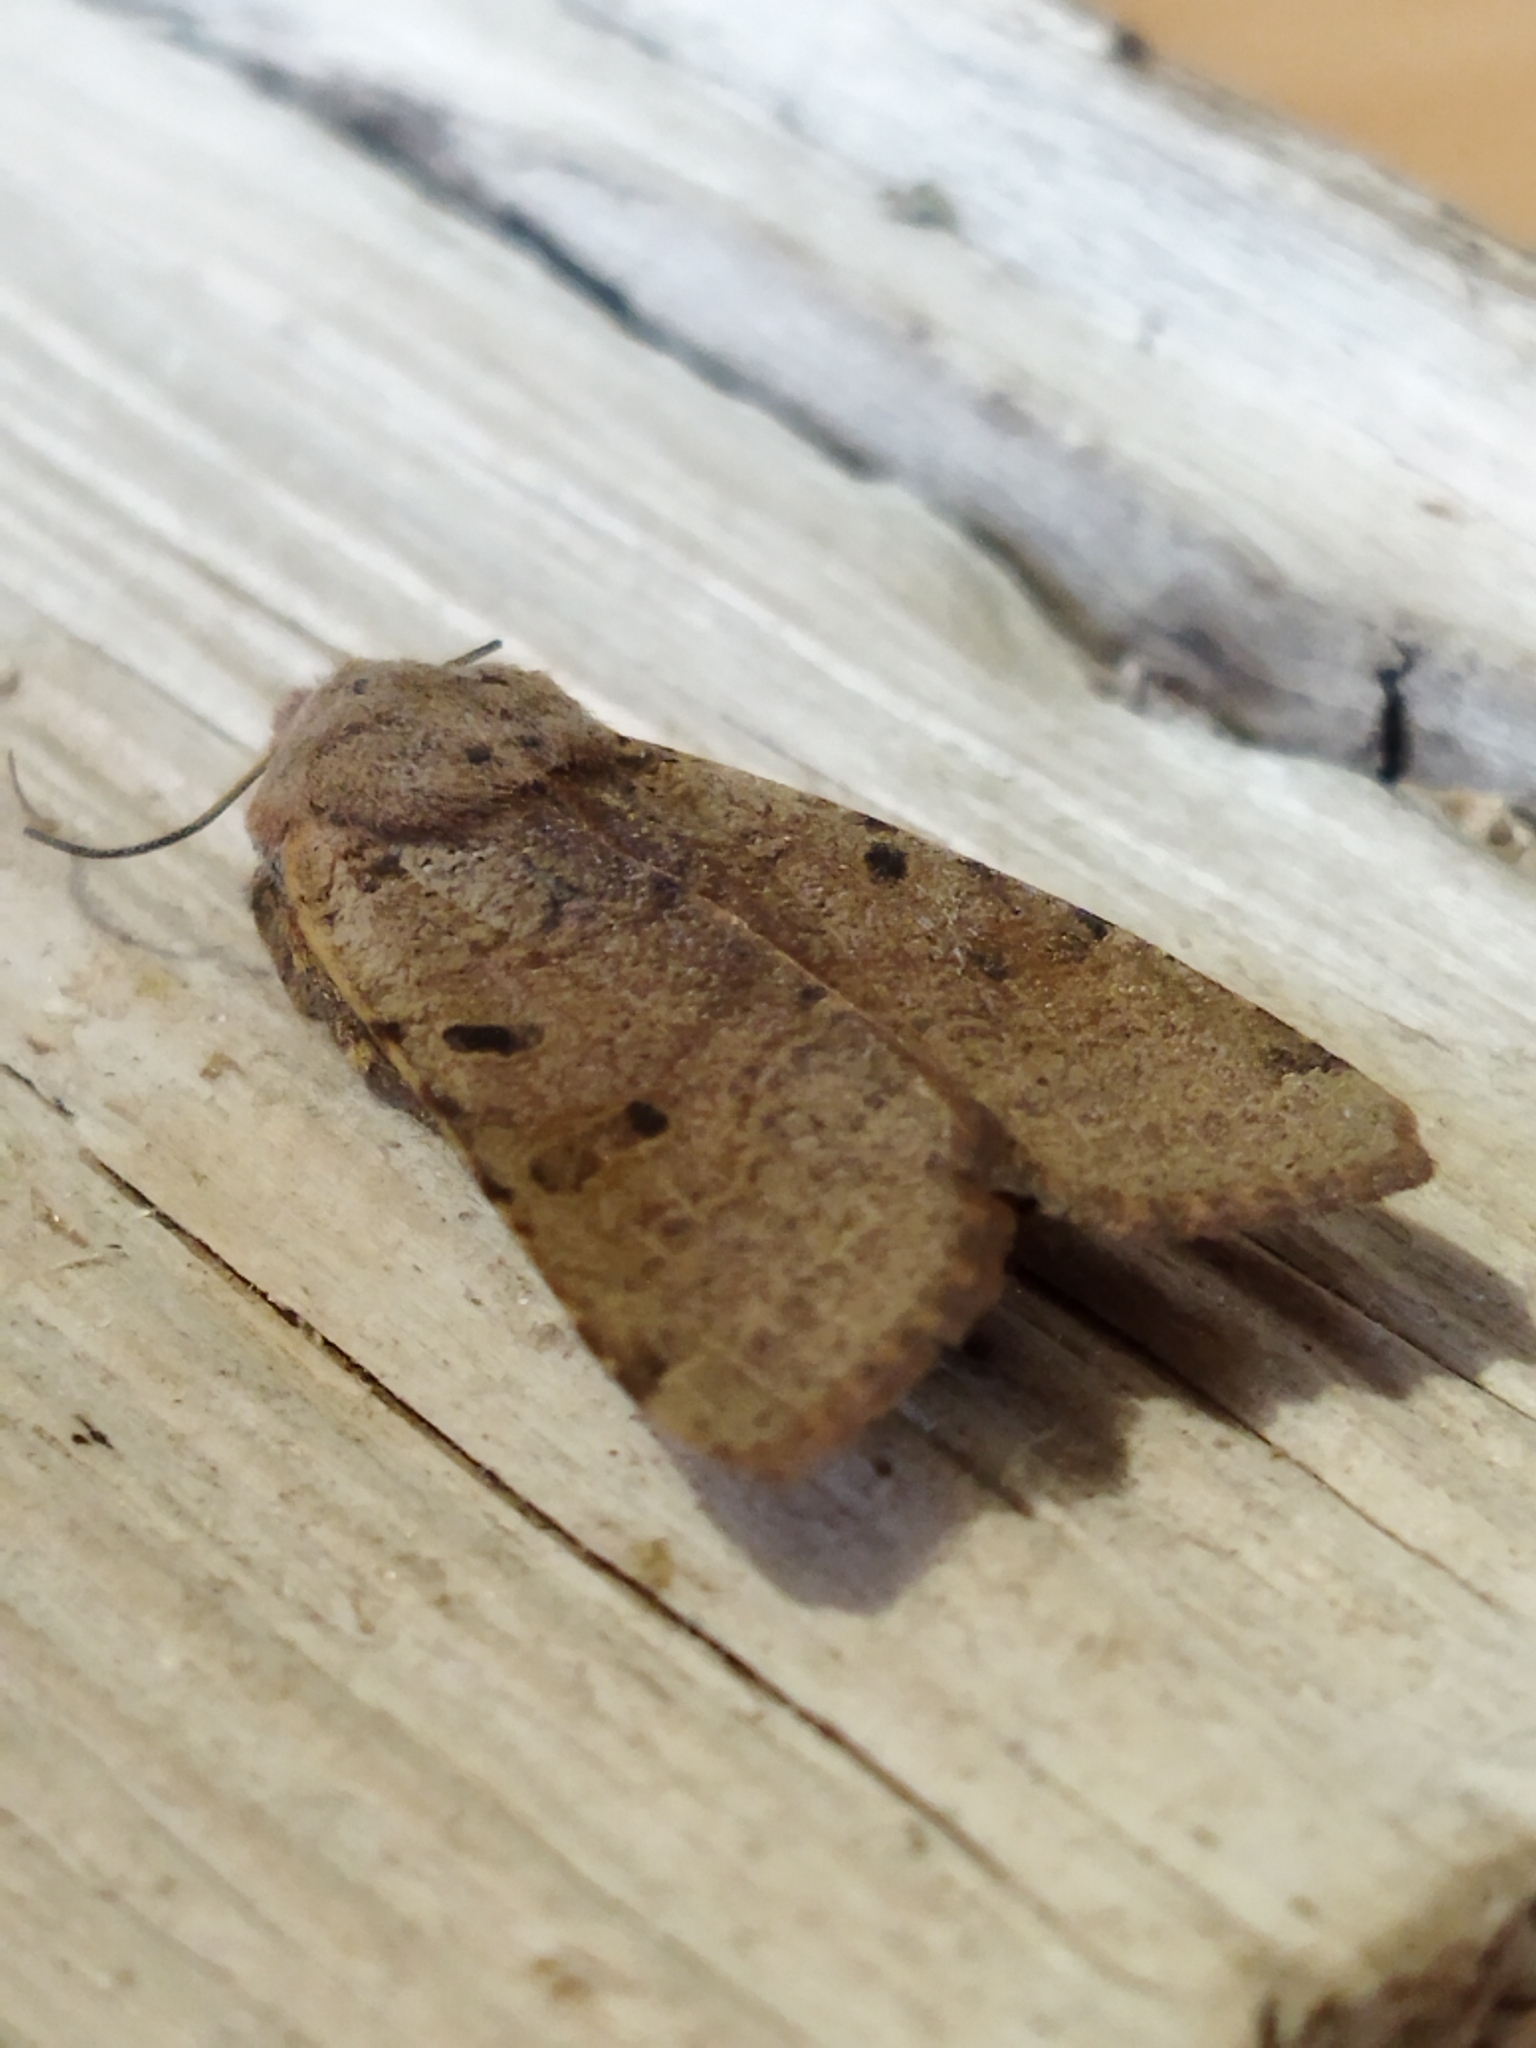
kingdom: Animalia
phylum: Arthropoda
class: Insecta
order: Lepidoptera
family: Noctuidae
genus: Agrochola
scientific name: Agrochola lychnidis
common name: Beaded chestnut
